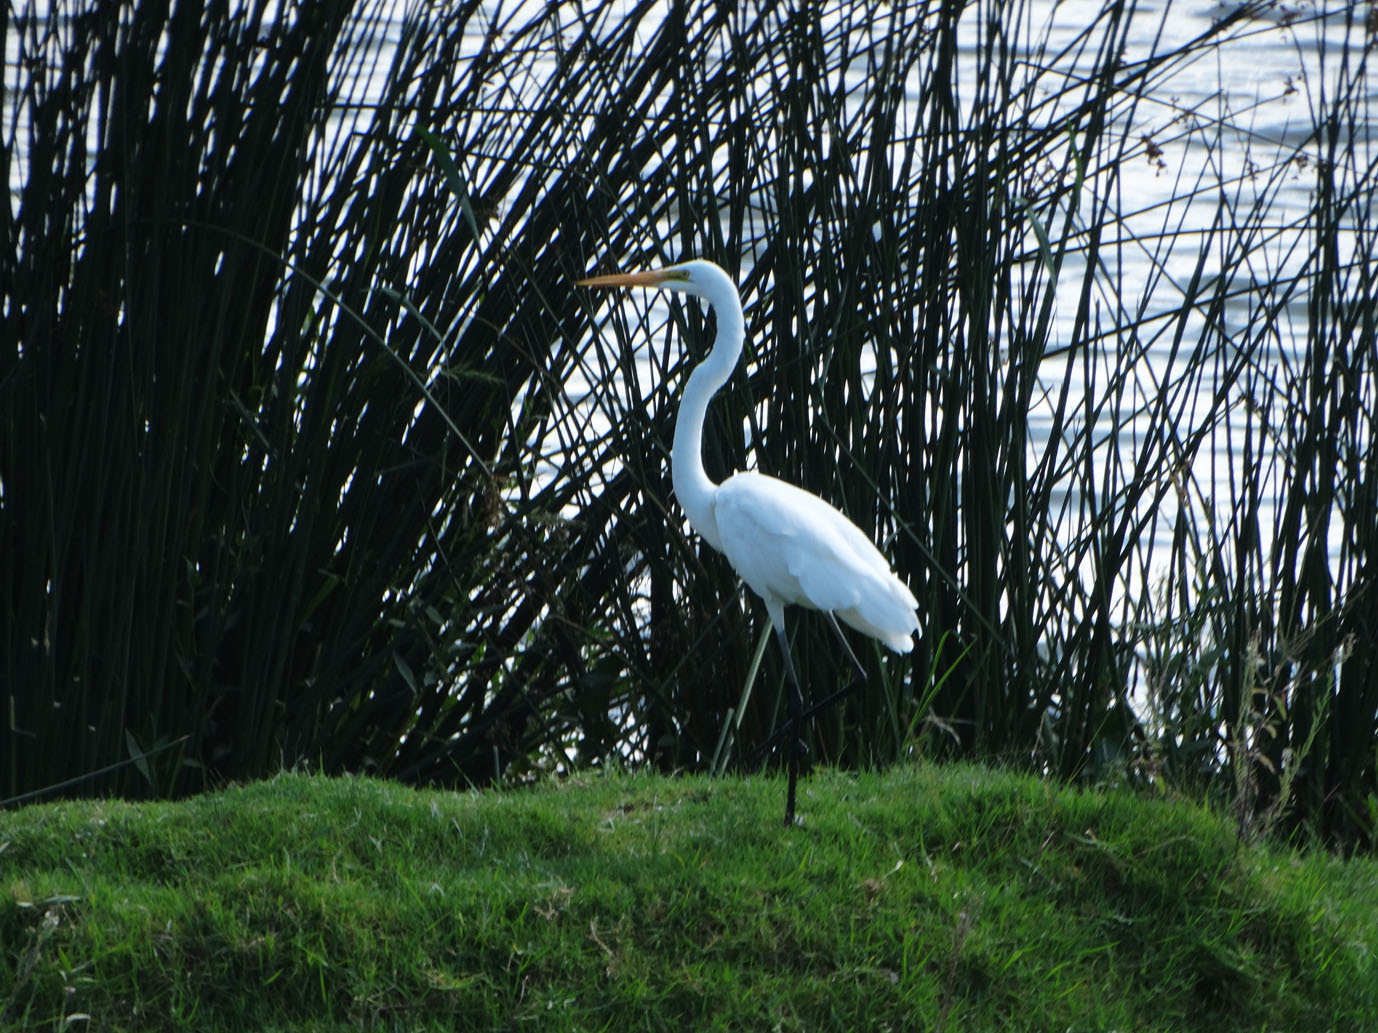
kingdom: Animalia
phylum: Chordata
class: Aves
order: Pelecaniformes
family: Ardeidae
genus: Ardea
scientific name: Ardea alba
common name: Great egret
